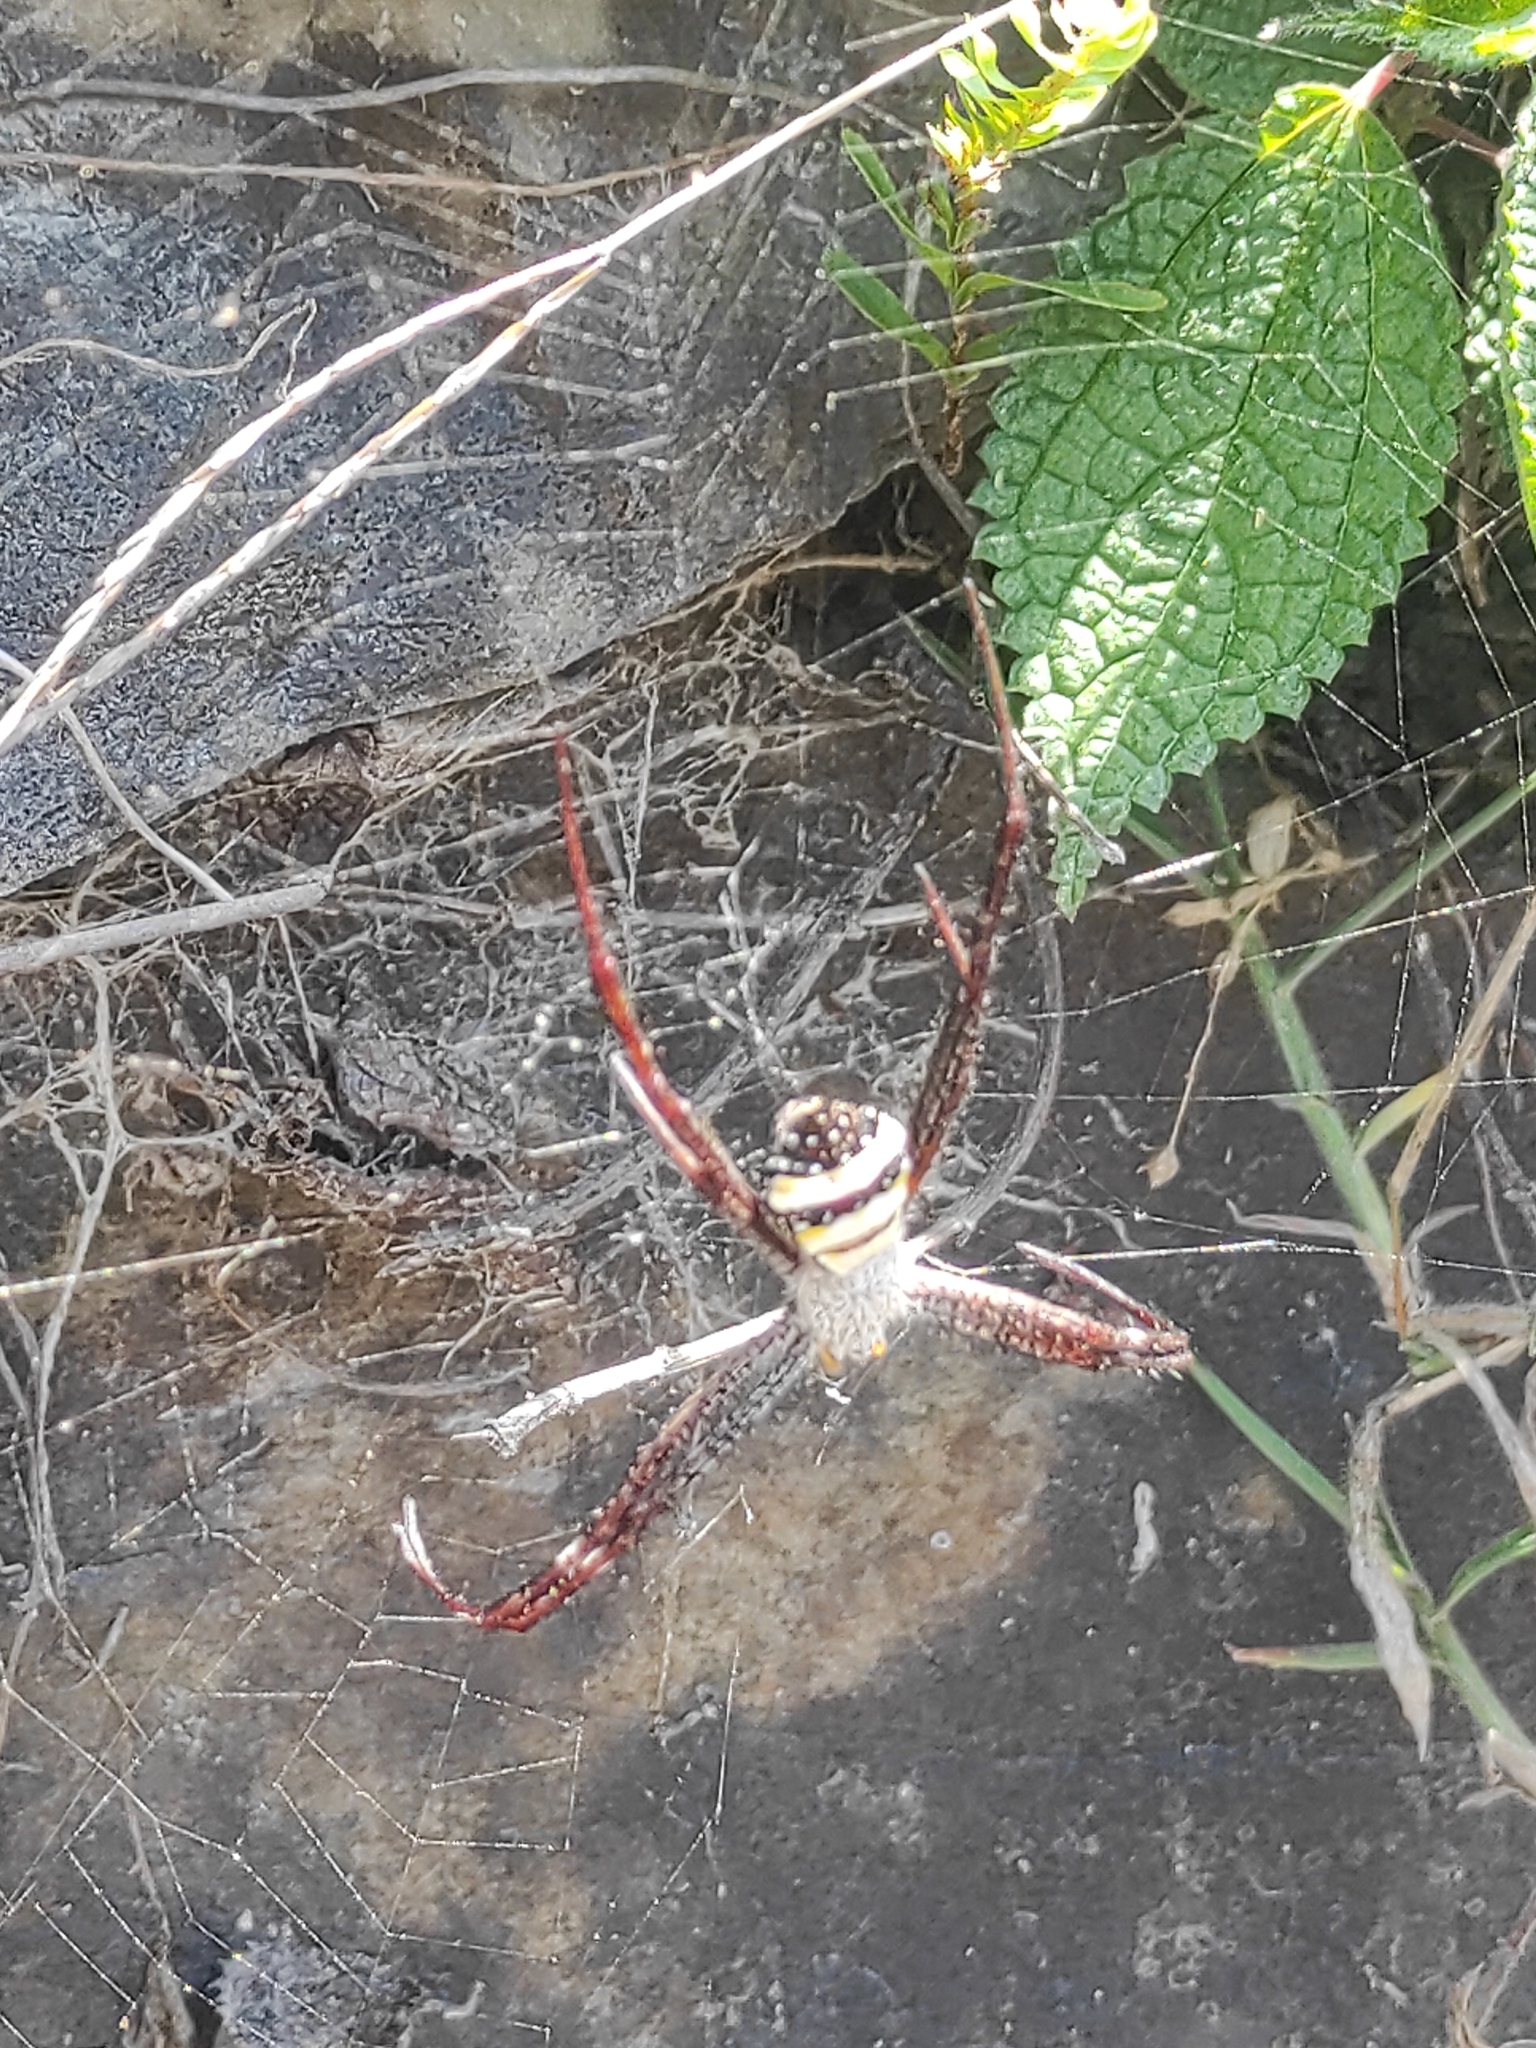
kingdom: Animalia
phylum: Arthropoda
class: Arachnida
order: Araneae
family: Araneidae
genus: Argiope
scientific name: Argiope pulchella
